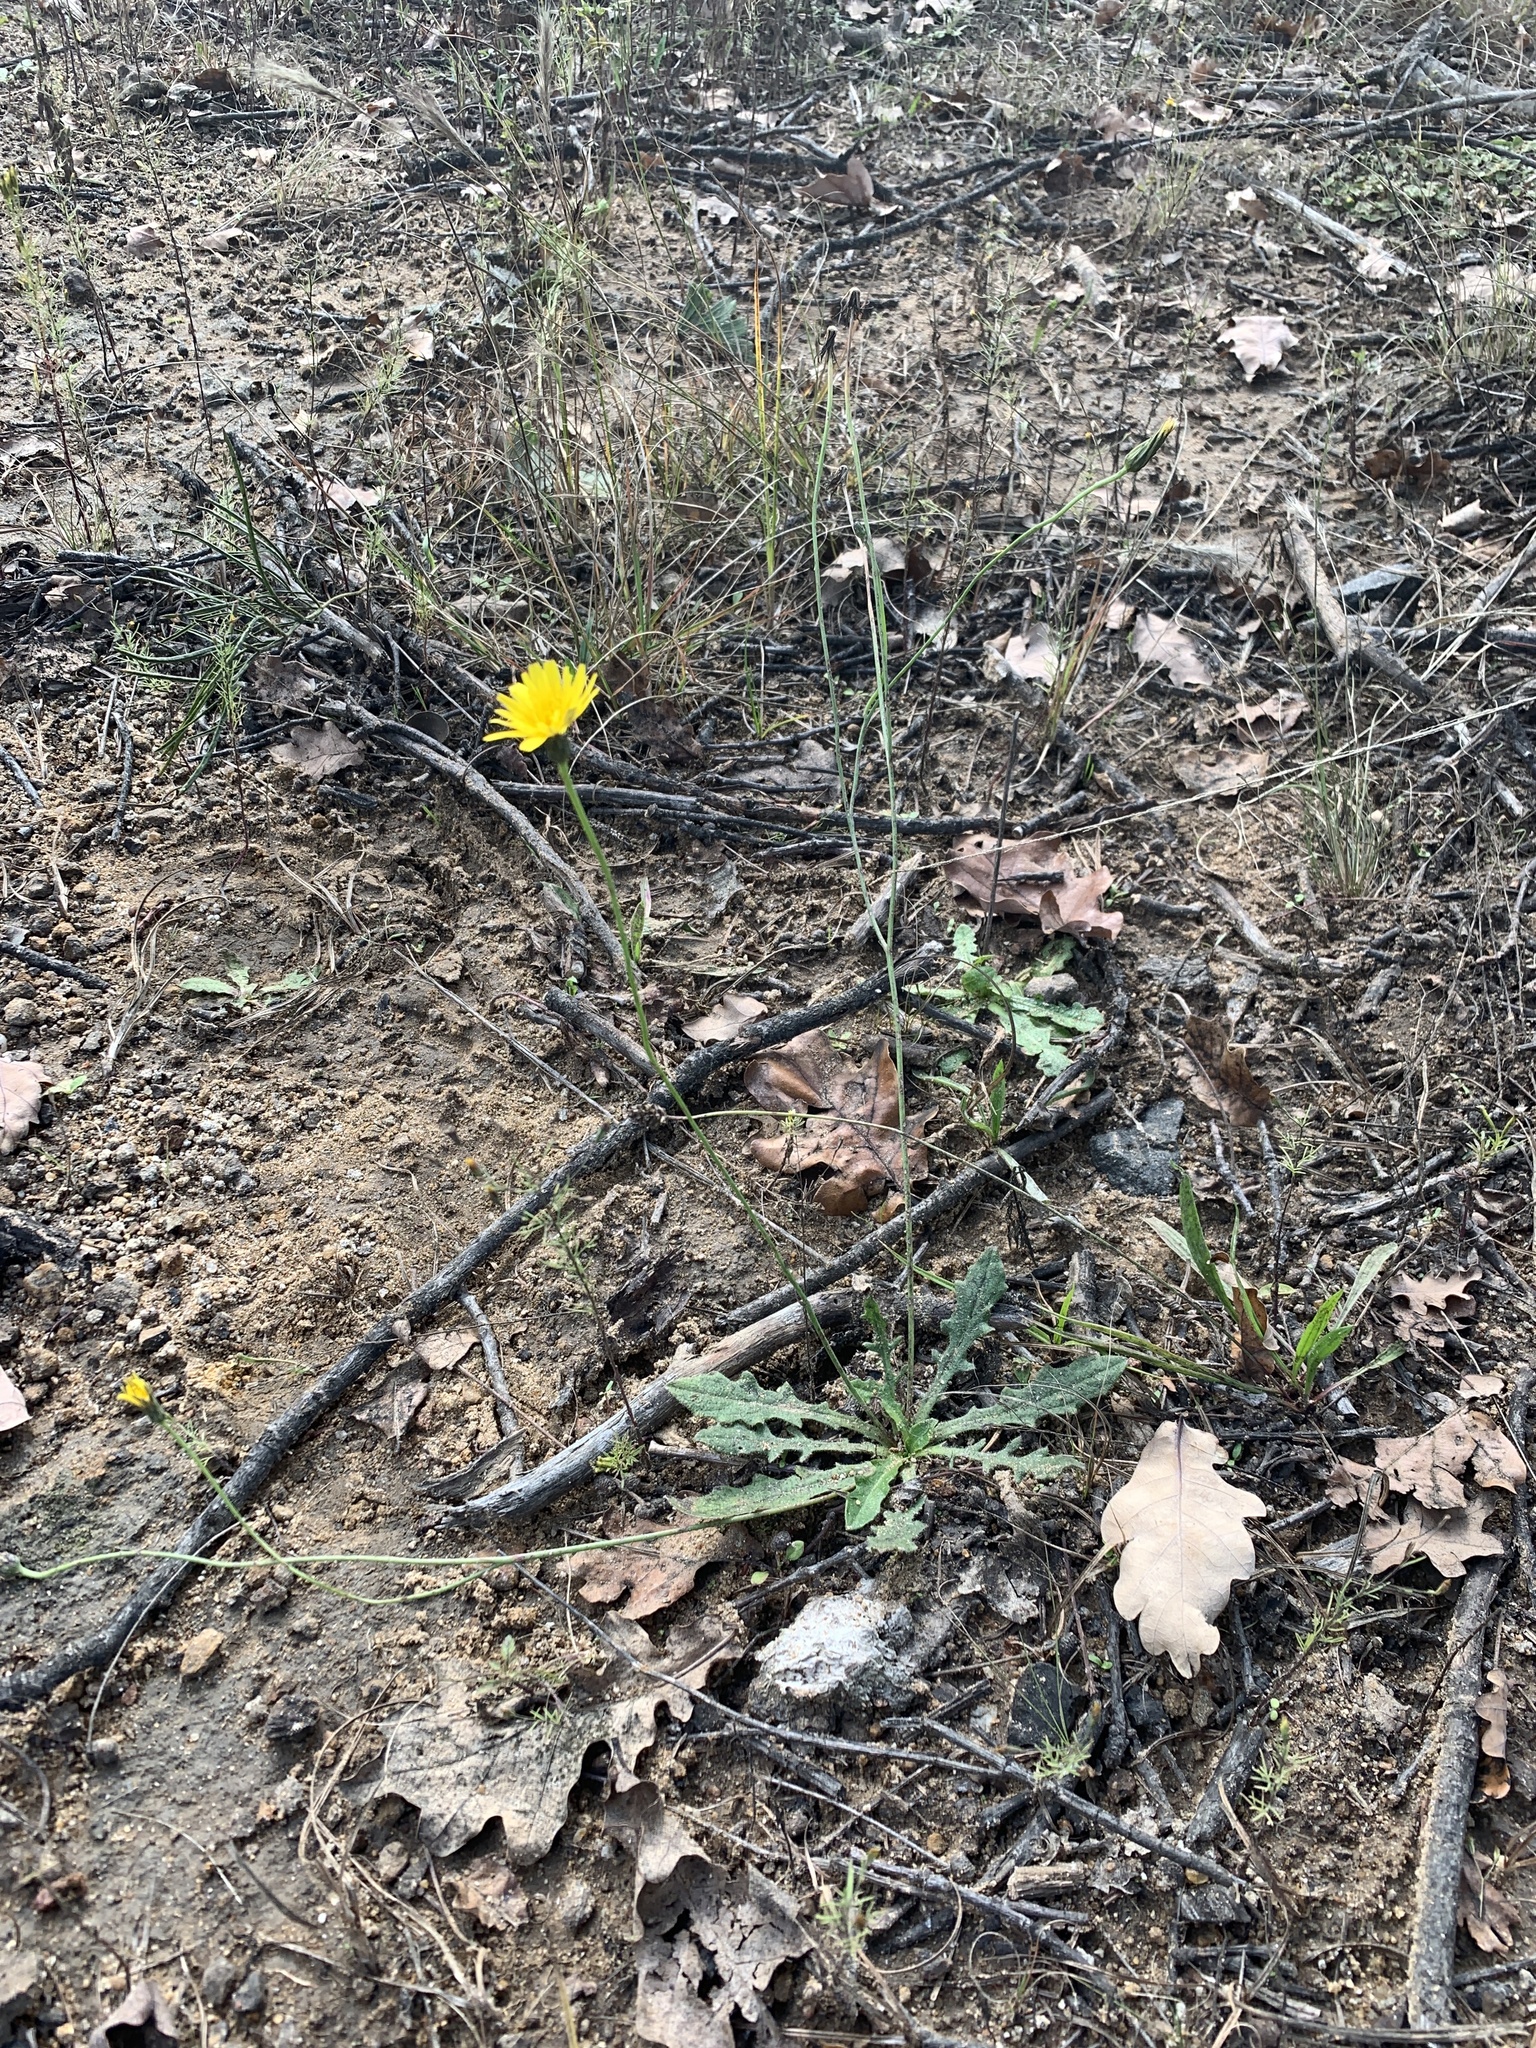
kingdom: Plantae
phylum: Tracheophyta
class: Magnoliopsida
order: Asterales
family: Asteraceae
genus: Hypochaeris
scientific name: Hypochaeris radicata
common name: Flatweed
